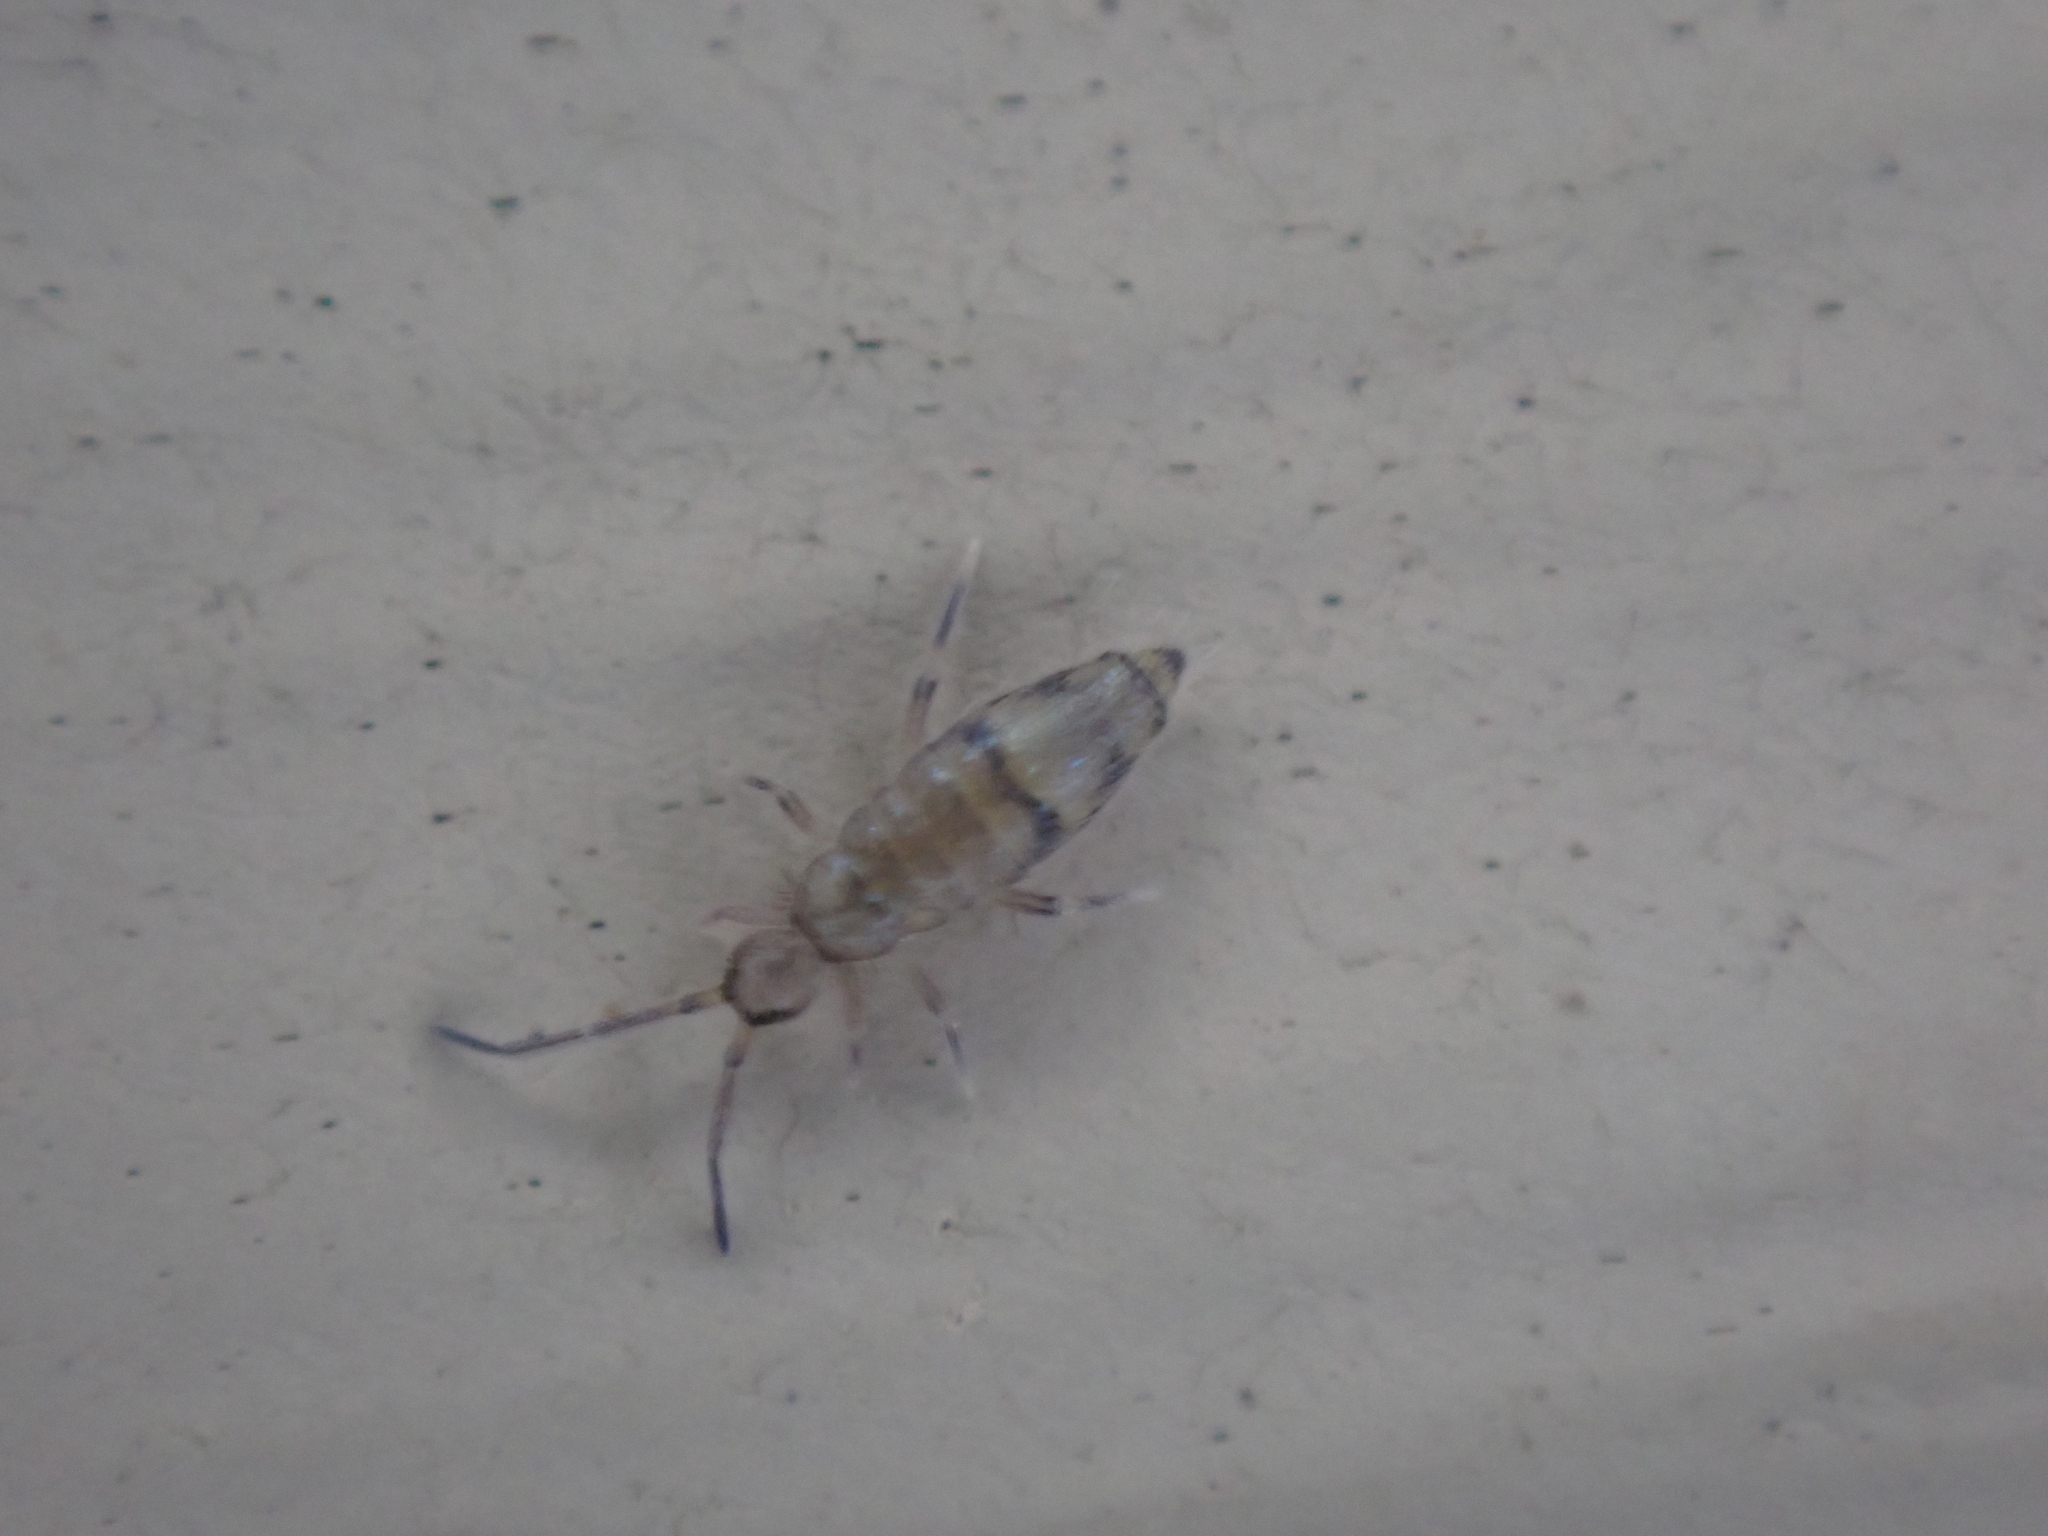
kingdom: Animalia
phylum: Arthropoda
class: Collembola
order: Entomobryomorpha
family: Entomobryidae
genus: Willowsia
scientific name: Willowsia nigromaculata
